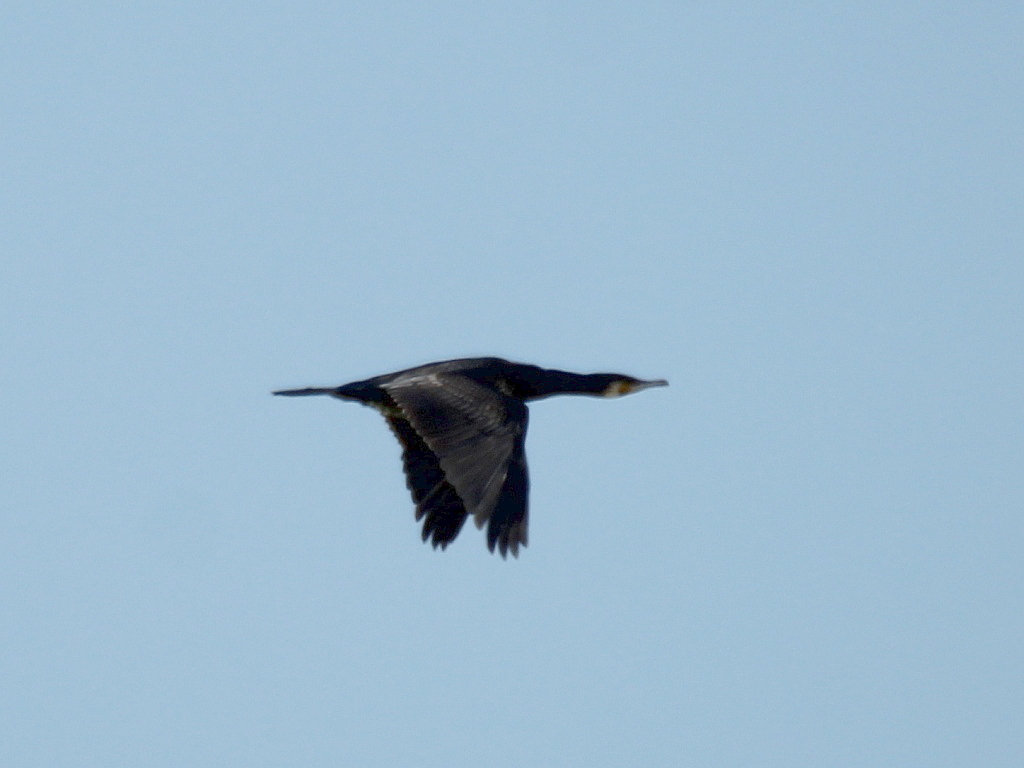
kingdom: Animalia
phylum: Chordata
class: Aves
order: Suliformes
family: Phalacrocoracidae
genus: Phalacrocorax
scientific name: Phalacrocorax carbo
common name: Great cormorant
